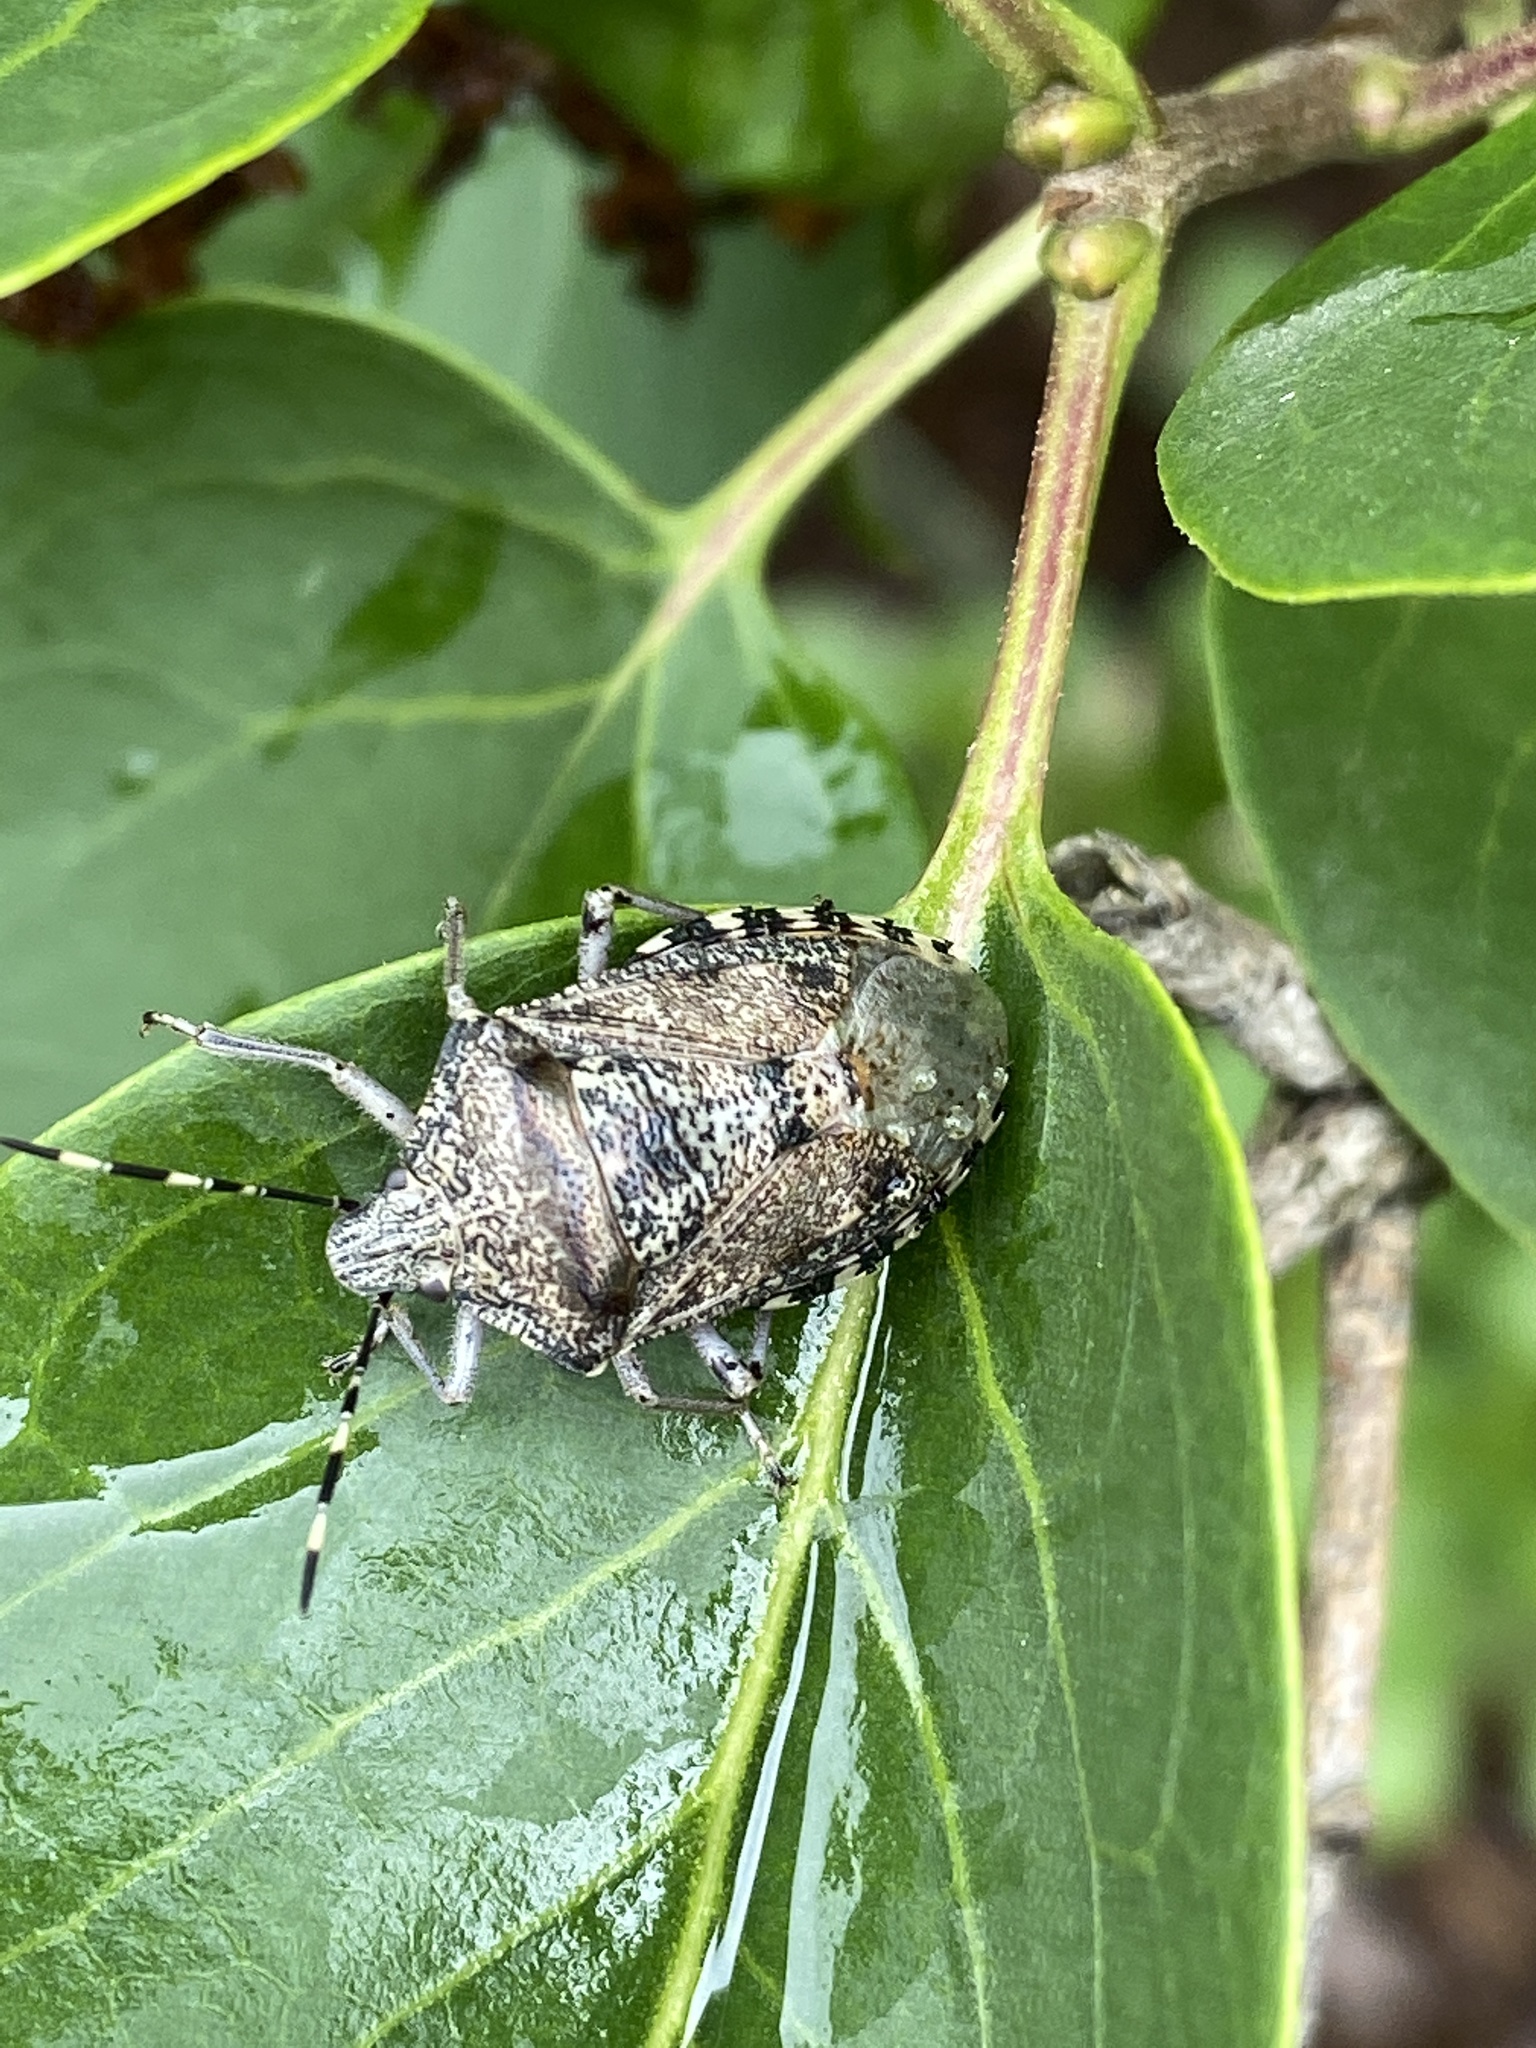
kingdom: Animalia
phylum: Arthropoda
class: Insecta
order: Hemiptera
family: Pentatomidae
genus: Rhaphigaster
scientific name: Rhaphigaster nebulosa
